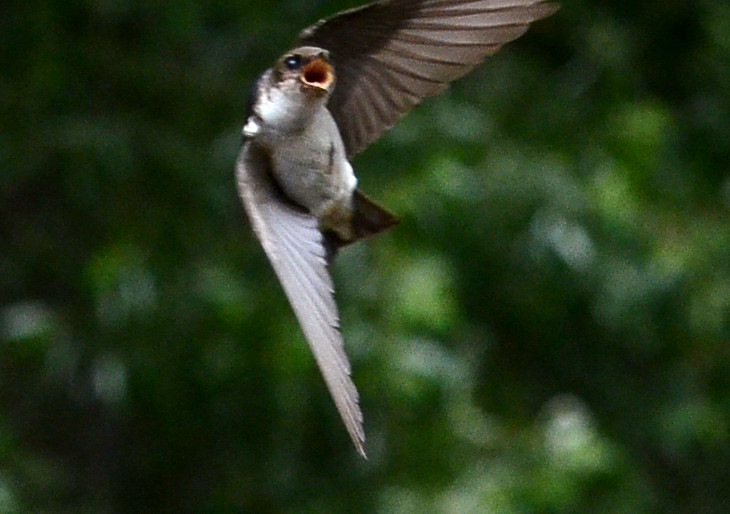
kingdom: Animalia
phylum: Chordata
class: Aves
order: Passeriformes
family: Hirundinidae
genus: Tachycineta
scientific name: Tachycineta thalassina
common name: Violet-green swallow
